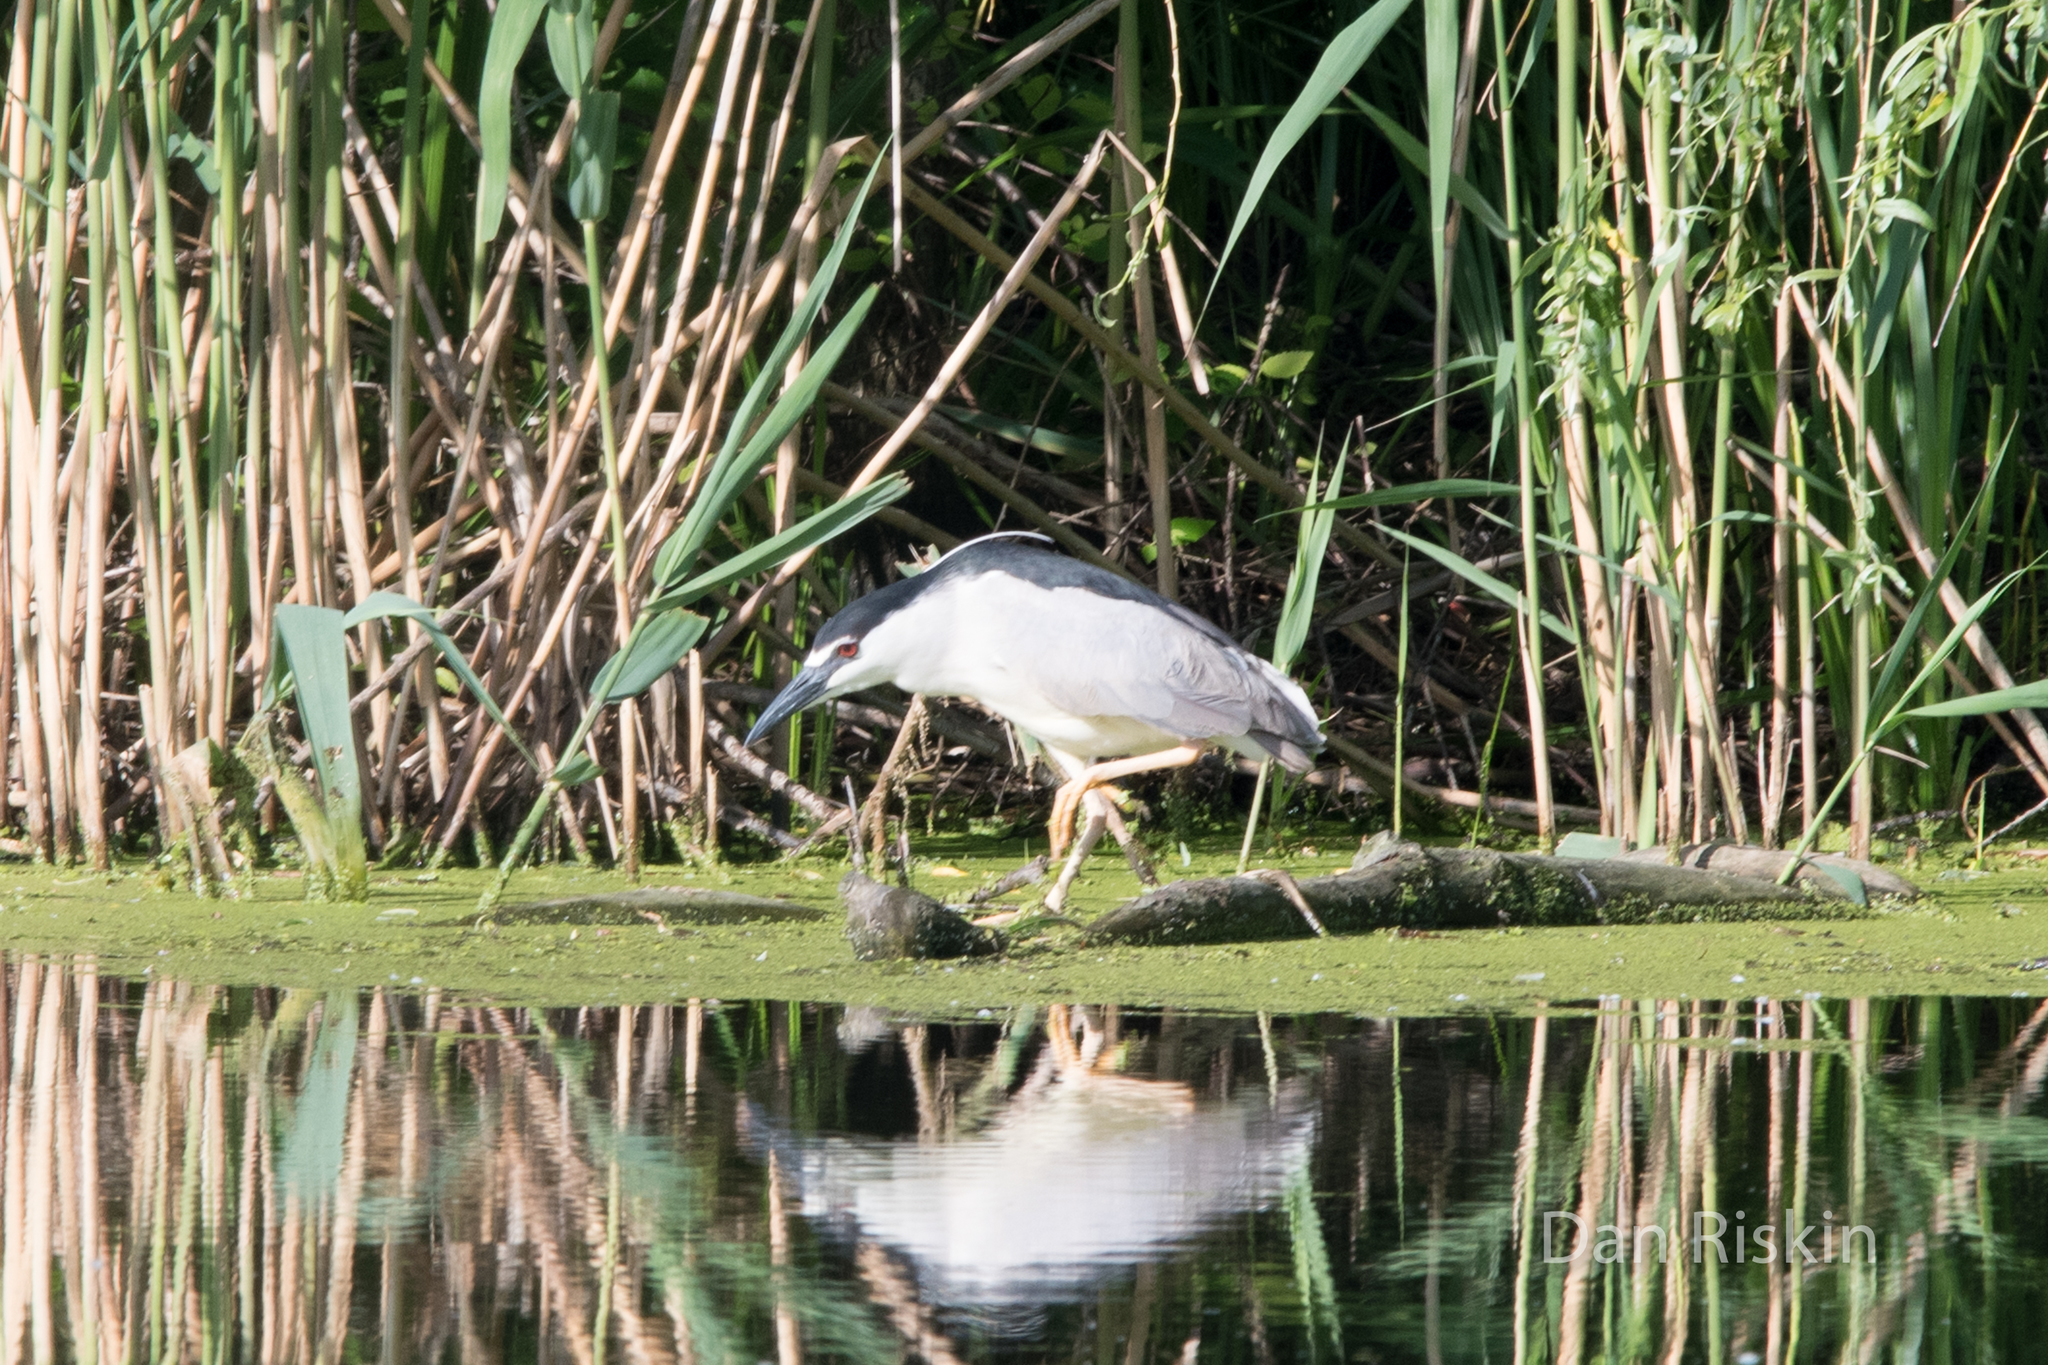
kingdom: Animalia
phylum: Chordata
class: Aves
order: Pelecaniformes
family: Ardeidae
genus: Nycticorax
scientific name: Nycticorax nycticorax
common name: Black-crowned night heron
